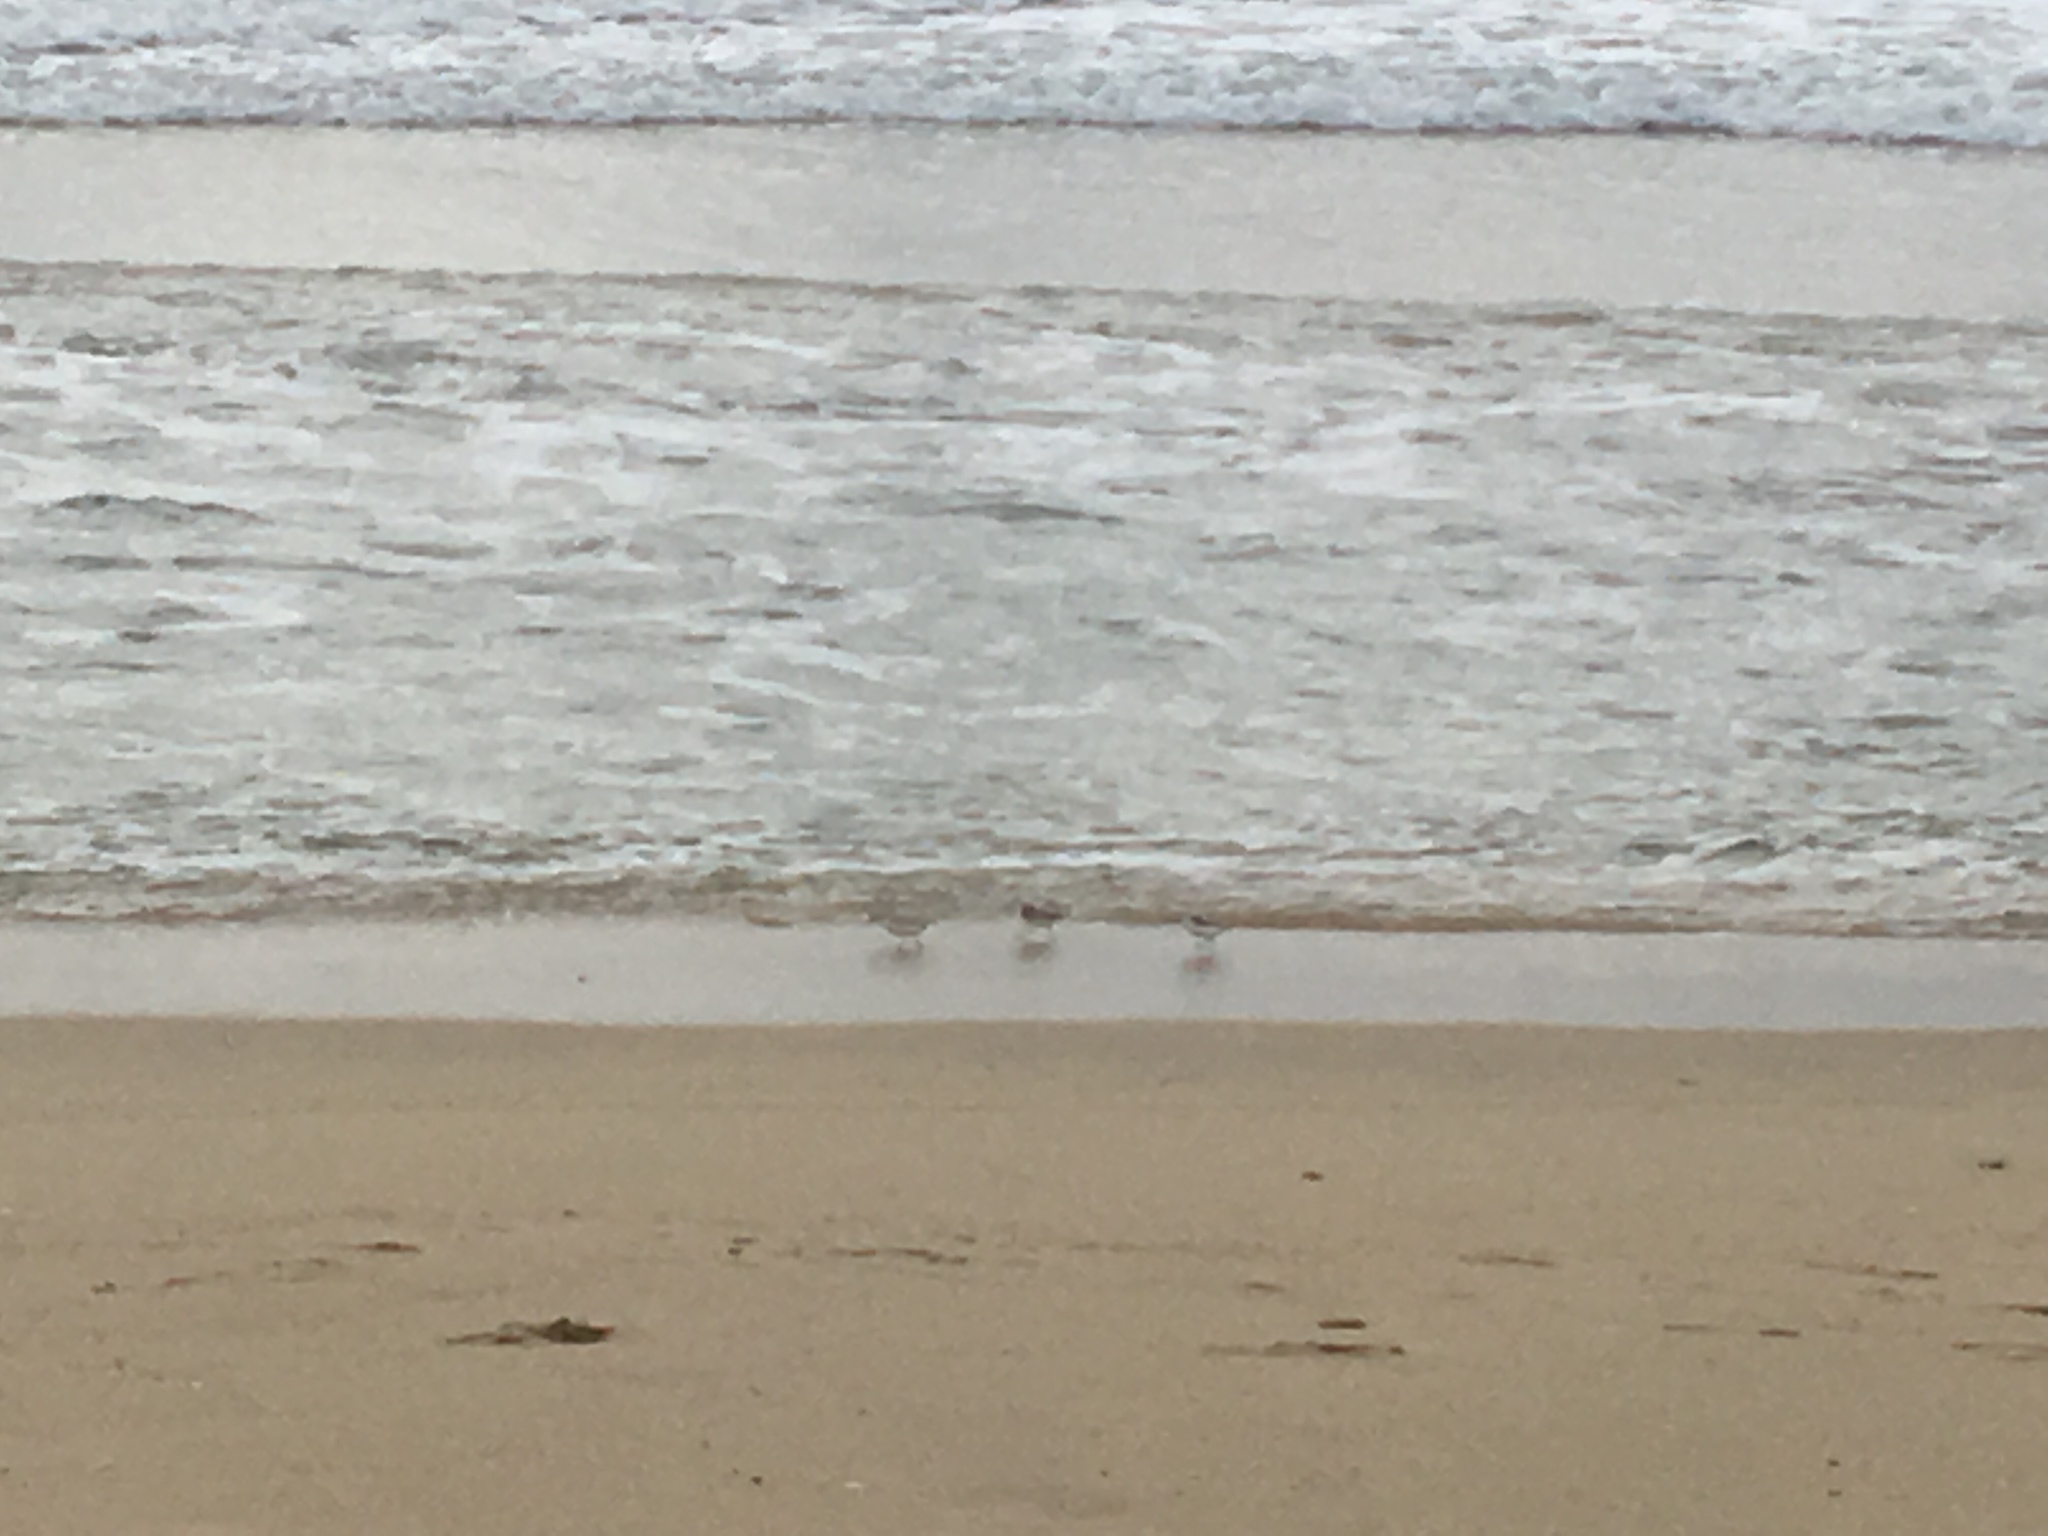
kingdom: Animalia
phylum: Chordata
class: Aves
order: Charadriiformes
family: Scolopacidae
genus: Calidris
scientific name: Calidris alba
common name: Sanderling
